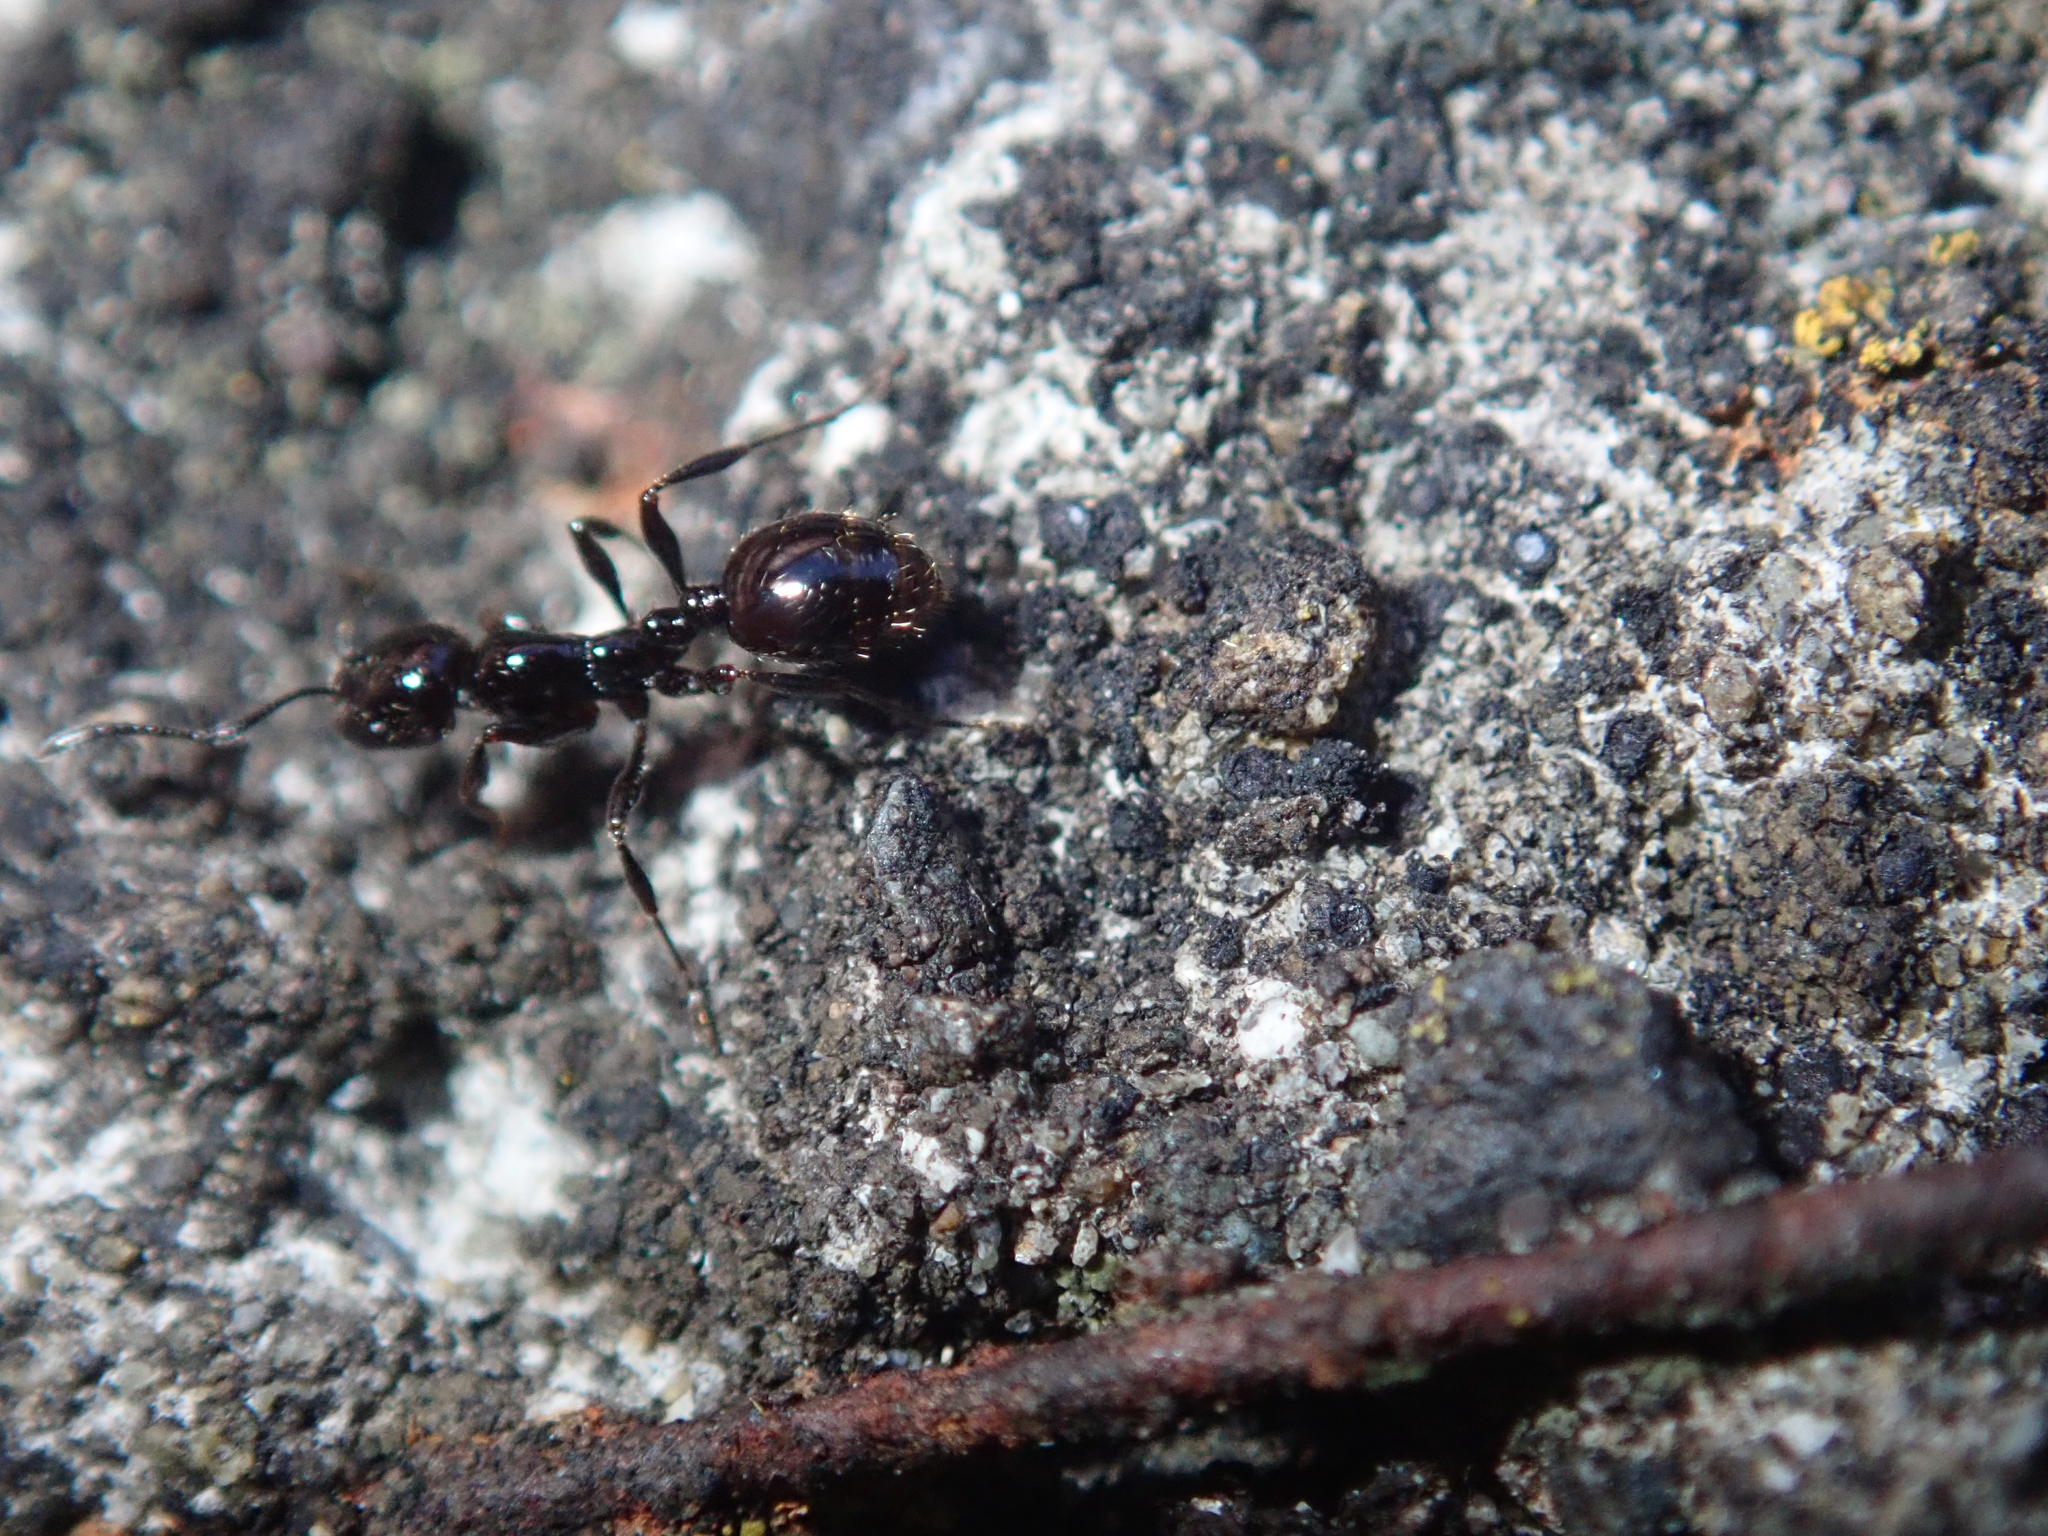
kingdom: Animalia
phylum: Arthropoda
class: Insecta
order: Hymenoptera
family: Formicidae
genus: Monomorium
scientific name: Monomorium antarcticum
